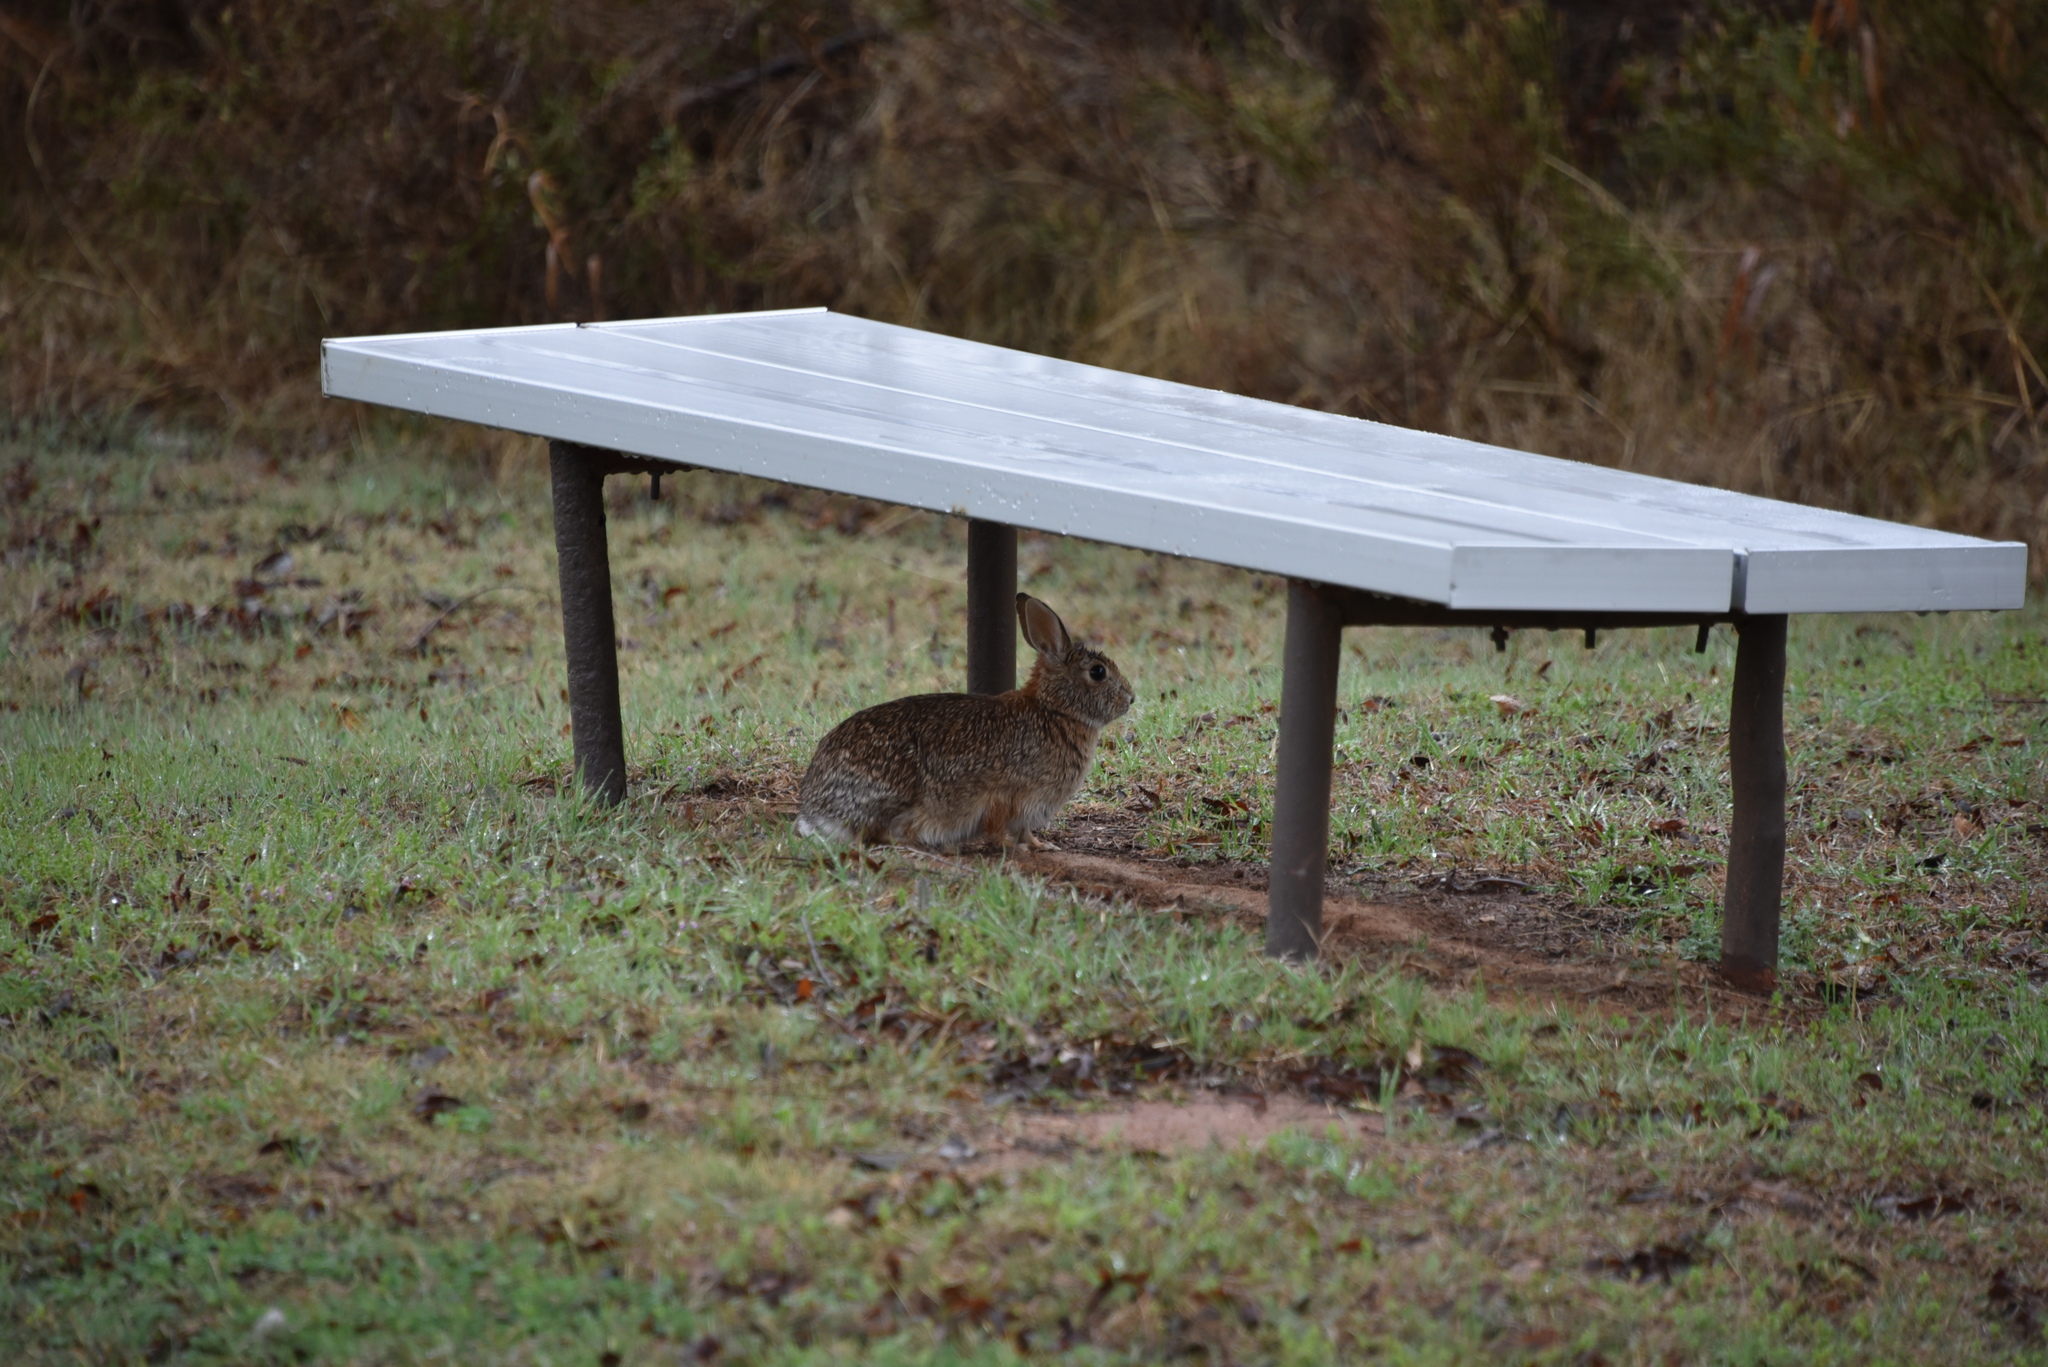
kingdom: Animalia
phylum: Chordata
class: Mammalia
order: Lagomorpha
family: Leporidae
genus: Sylvilagus
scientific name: Sylvilagus floridanus
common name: Eastern cottontail
